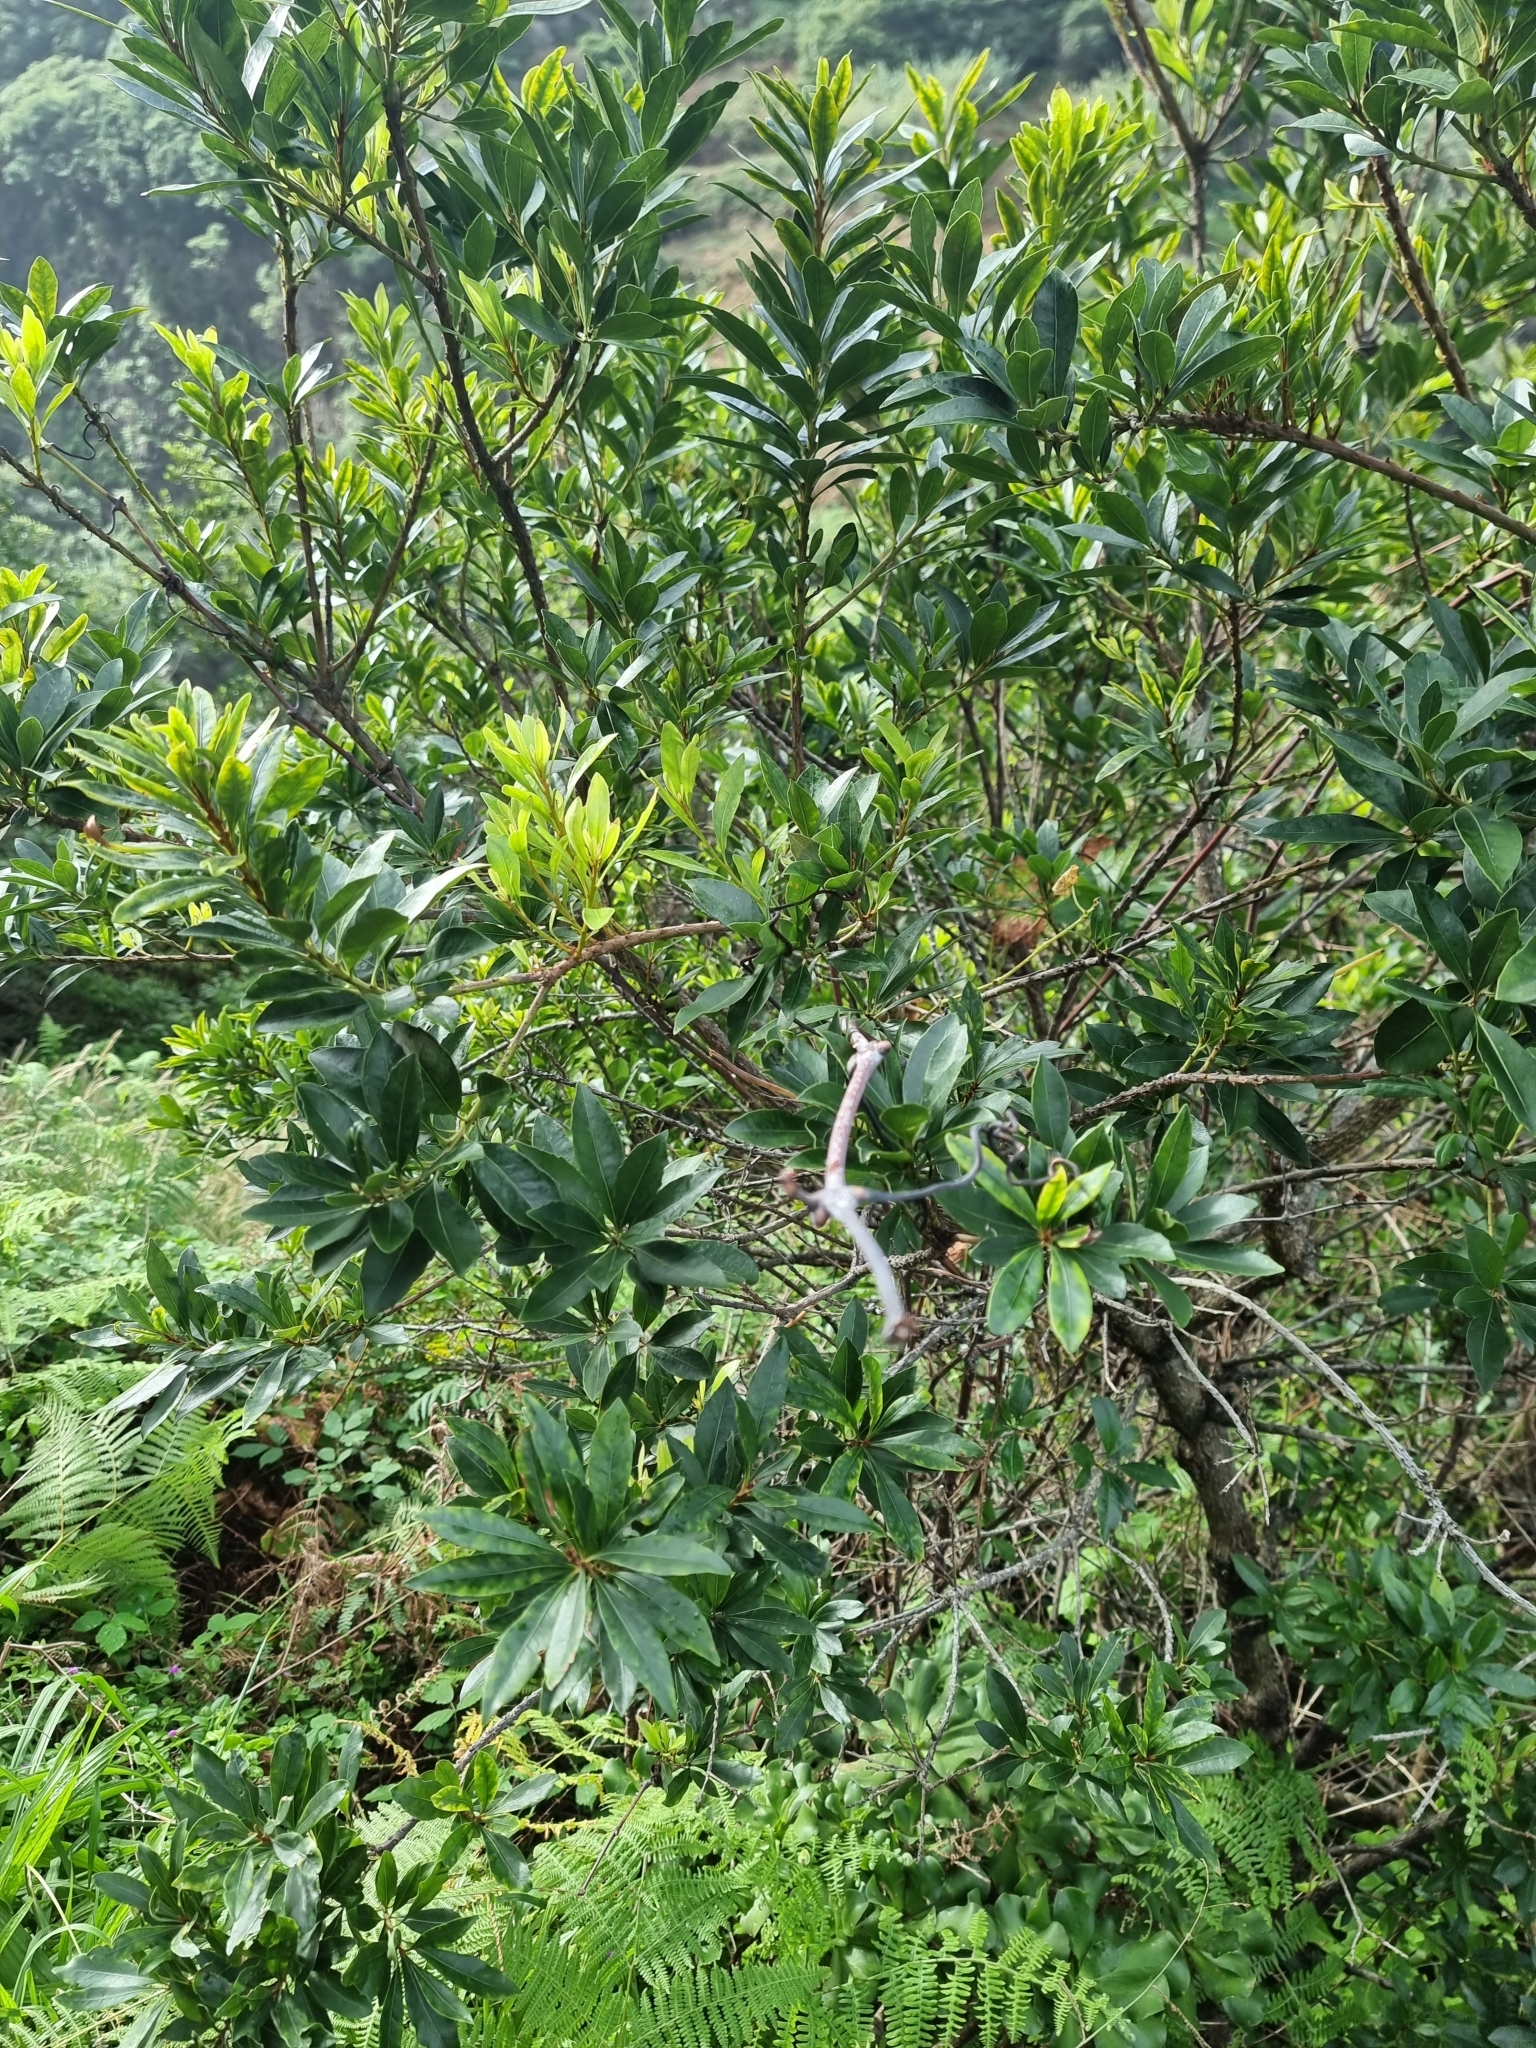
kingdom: Plantae
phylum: Tracheophyta
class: Magnoliopsida
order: Fagales
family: Myricaceae
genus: Morella
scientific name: Morella faya
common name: Firetree
